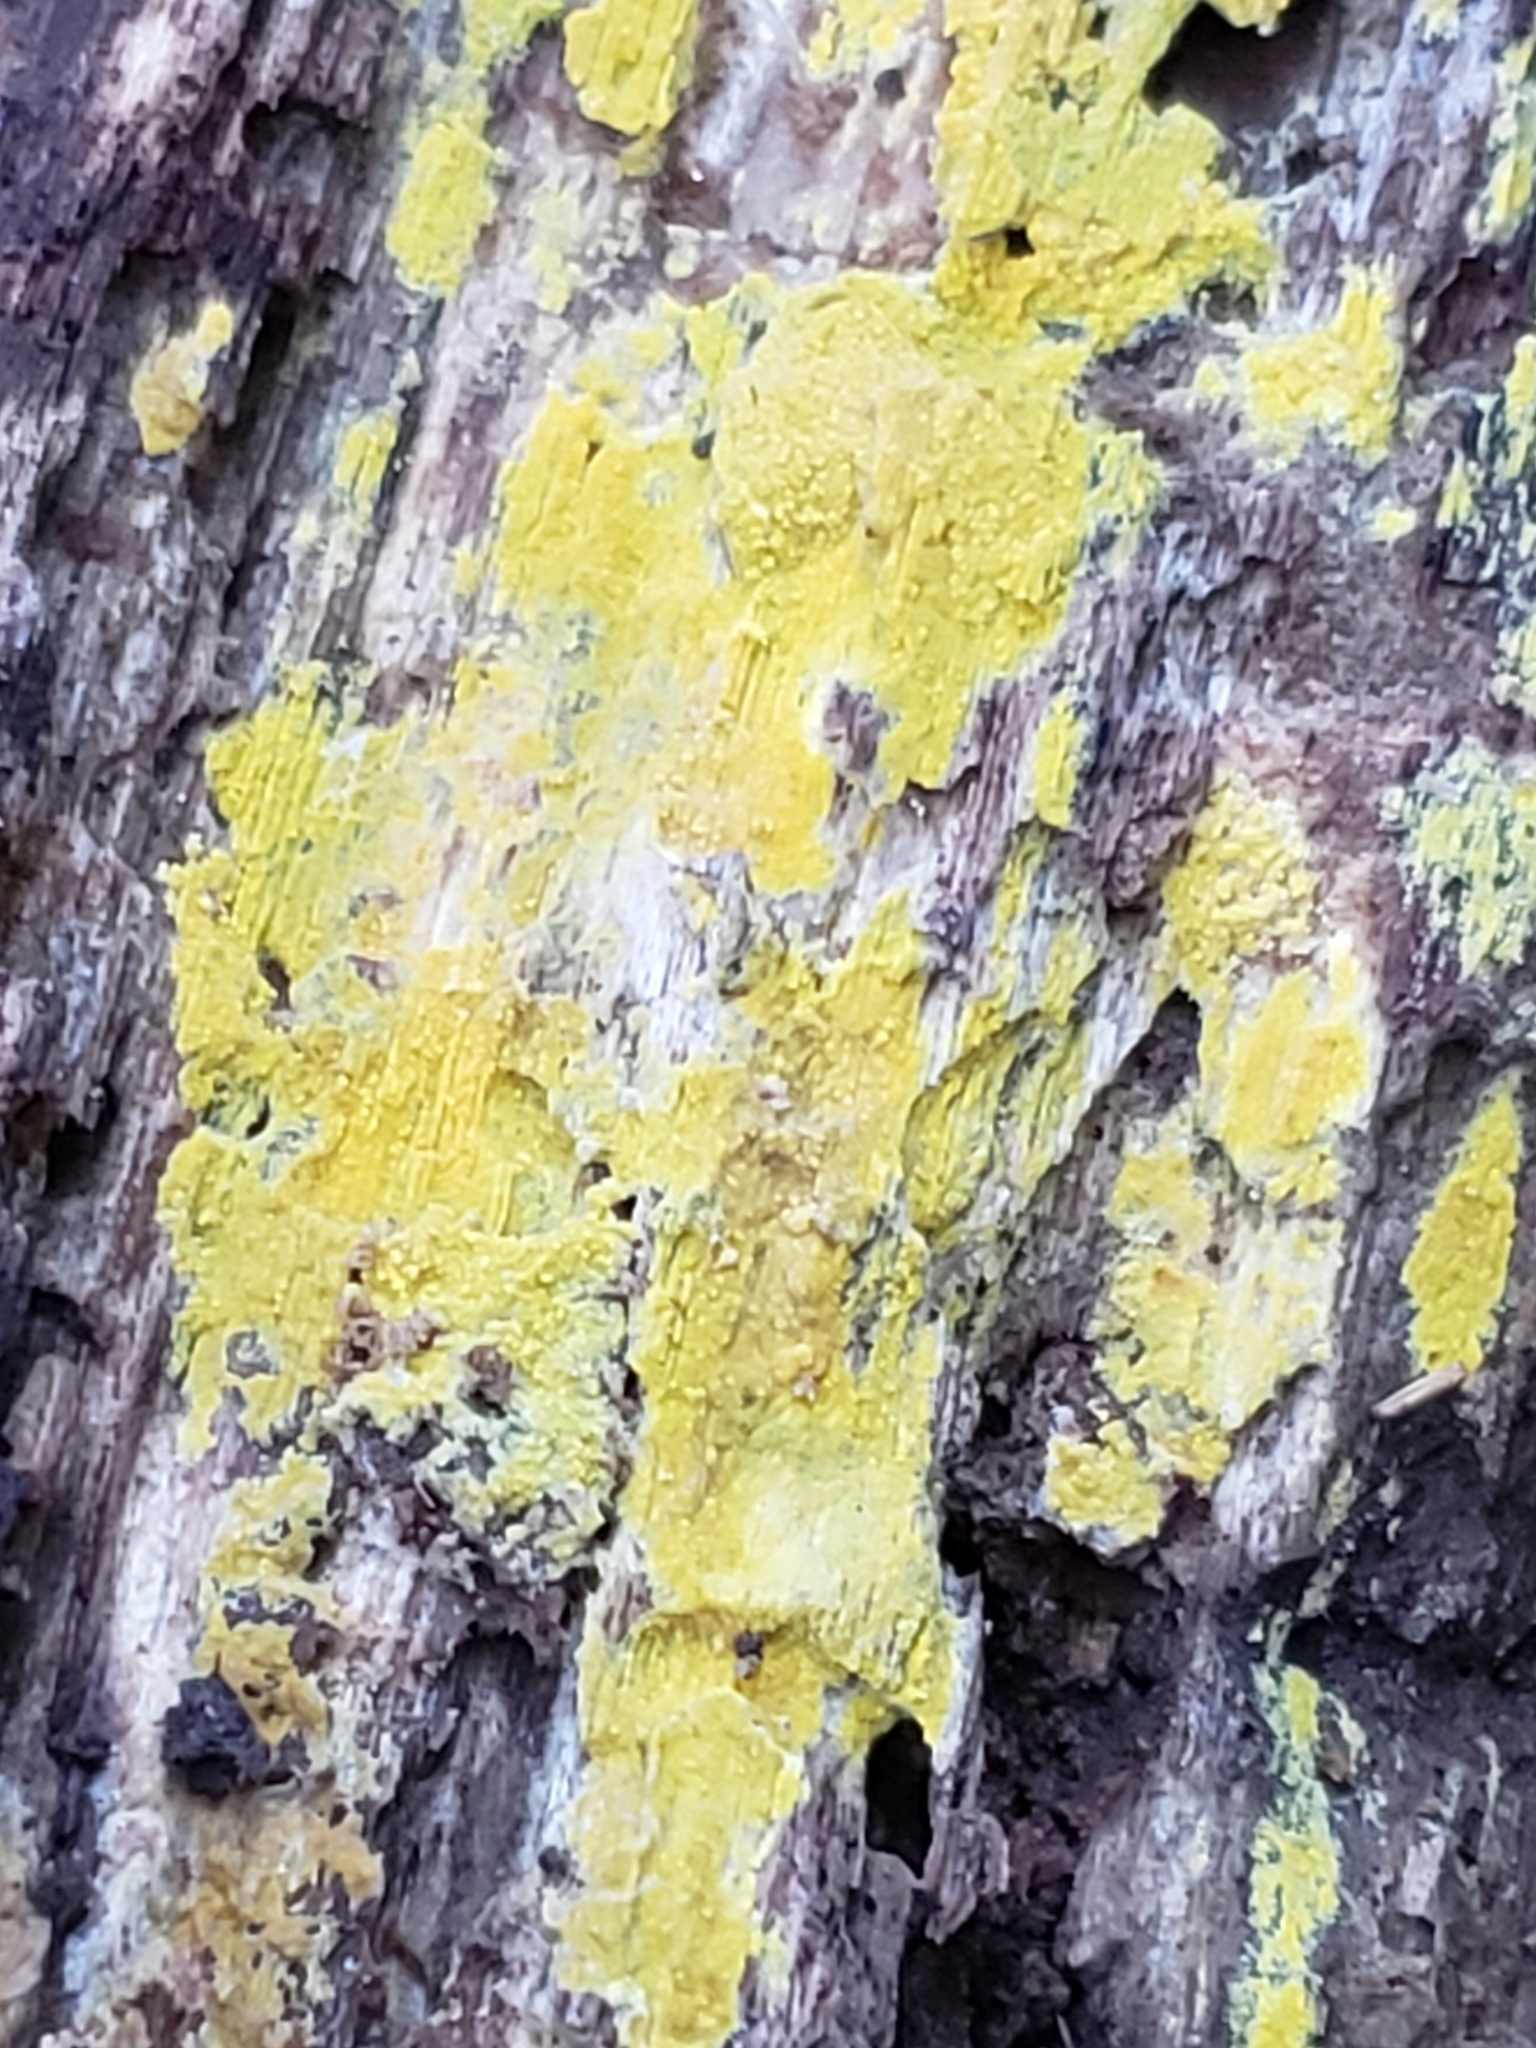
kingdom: Fungi
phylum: Basidiomycota
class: Agaricomycetes
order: Polyporales
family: Meruliaceae
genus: Phlebiodontia
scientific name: Phlebiodontia subochracea
